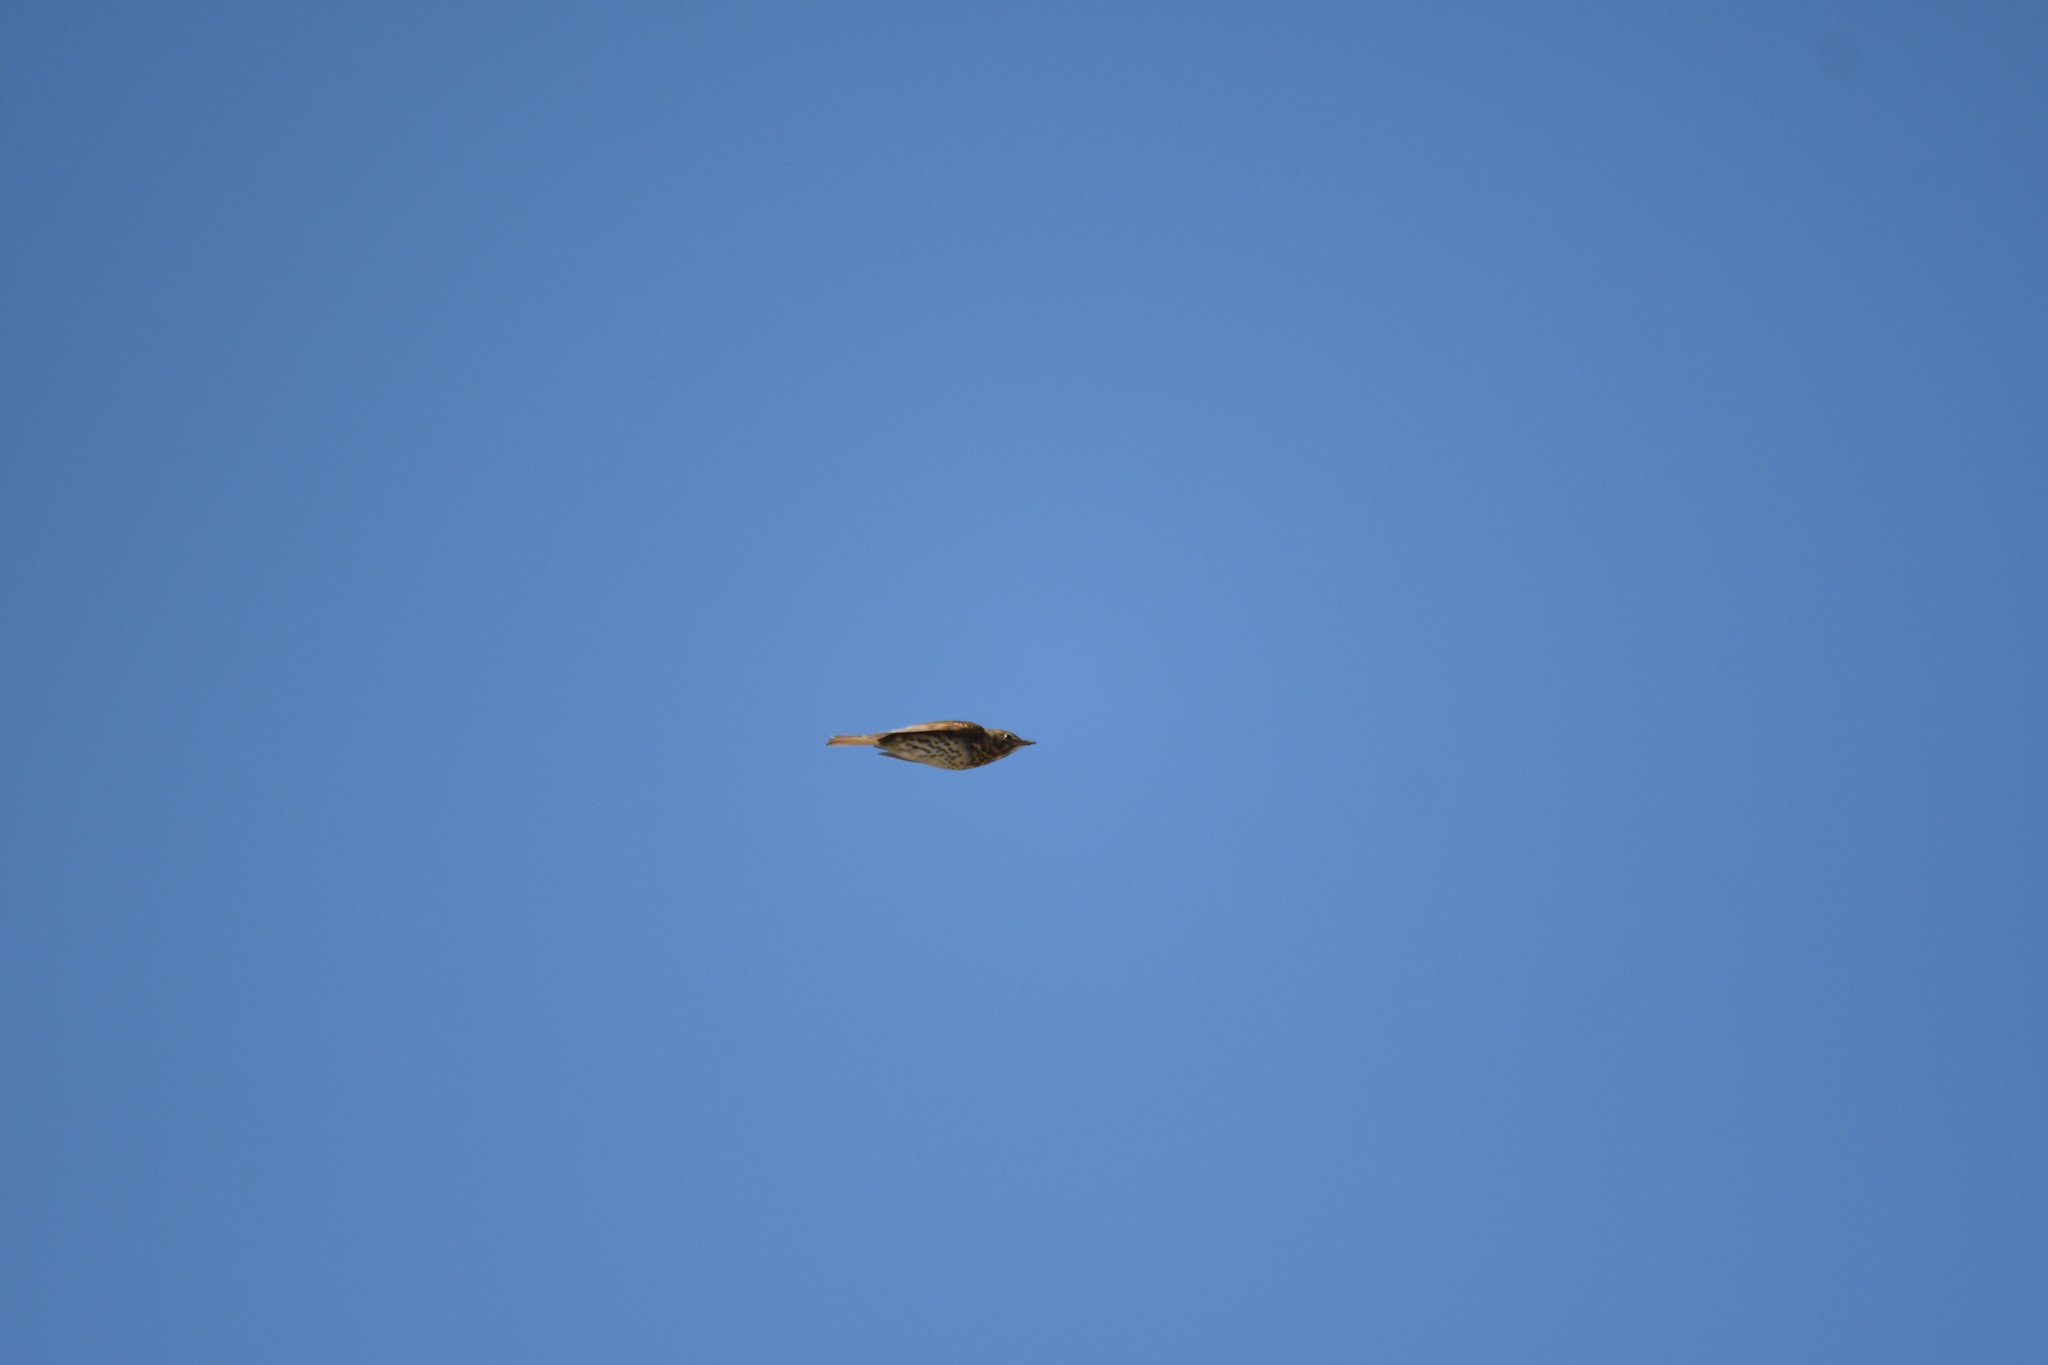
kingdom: Animalia
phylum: Chordata
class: Aves
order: Passeriformes
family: Turdidae
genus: Turdus
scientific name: Turdus philomelos
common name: Song thrush
